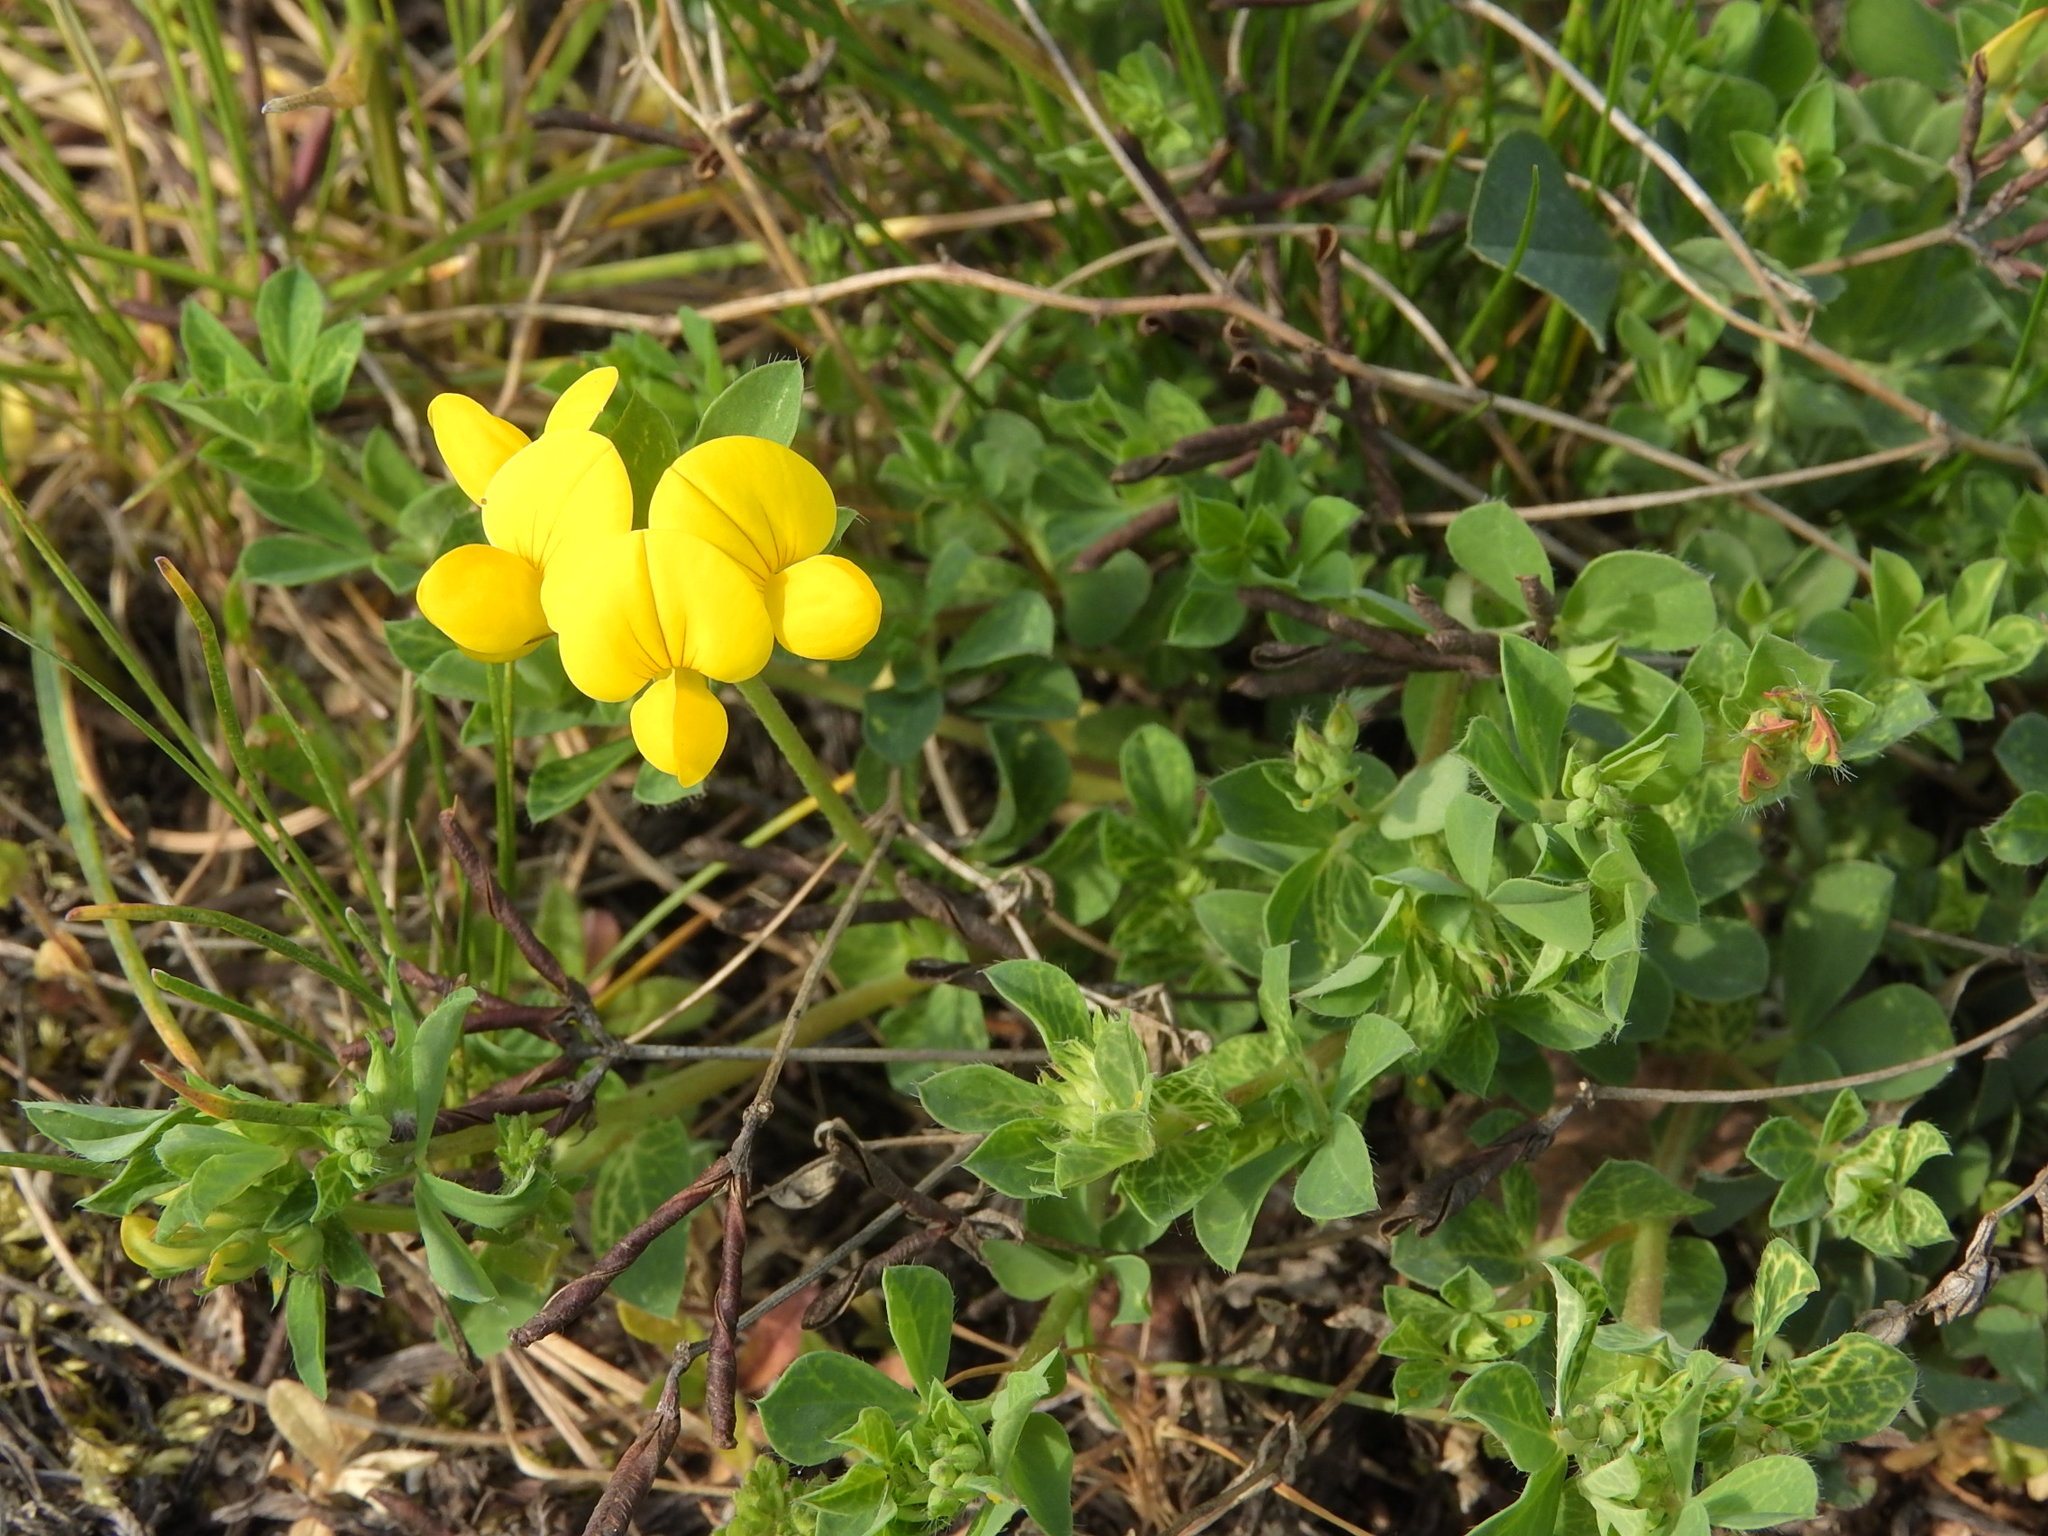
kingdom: Plantae
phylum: Tracheophyta
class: Magnoliopsida
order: Fabales
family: Fabaceae
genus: Lotus
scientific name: Lotus corniculatus
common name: Common bird's-foot-trefoil
